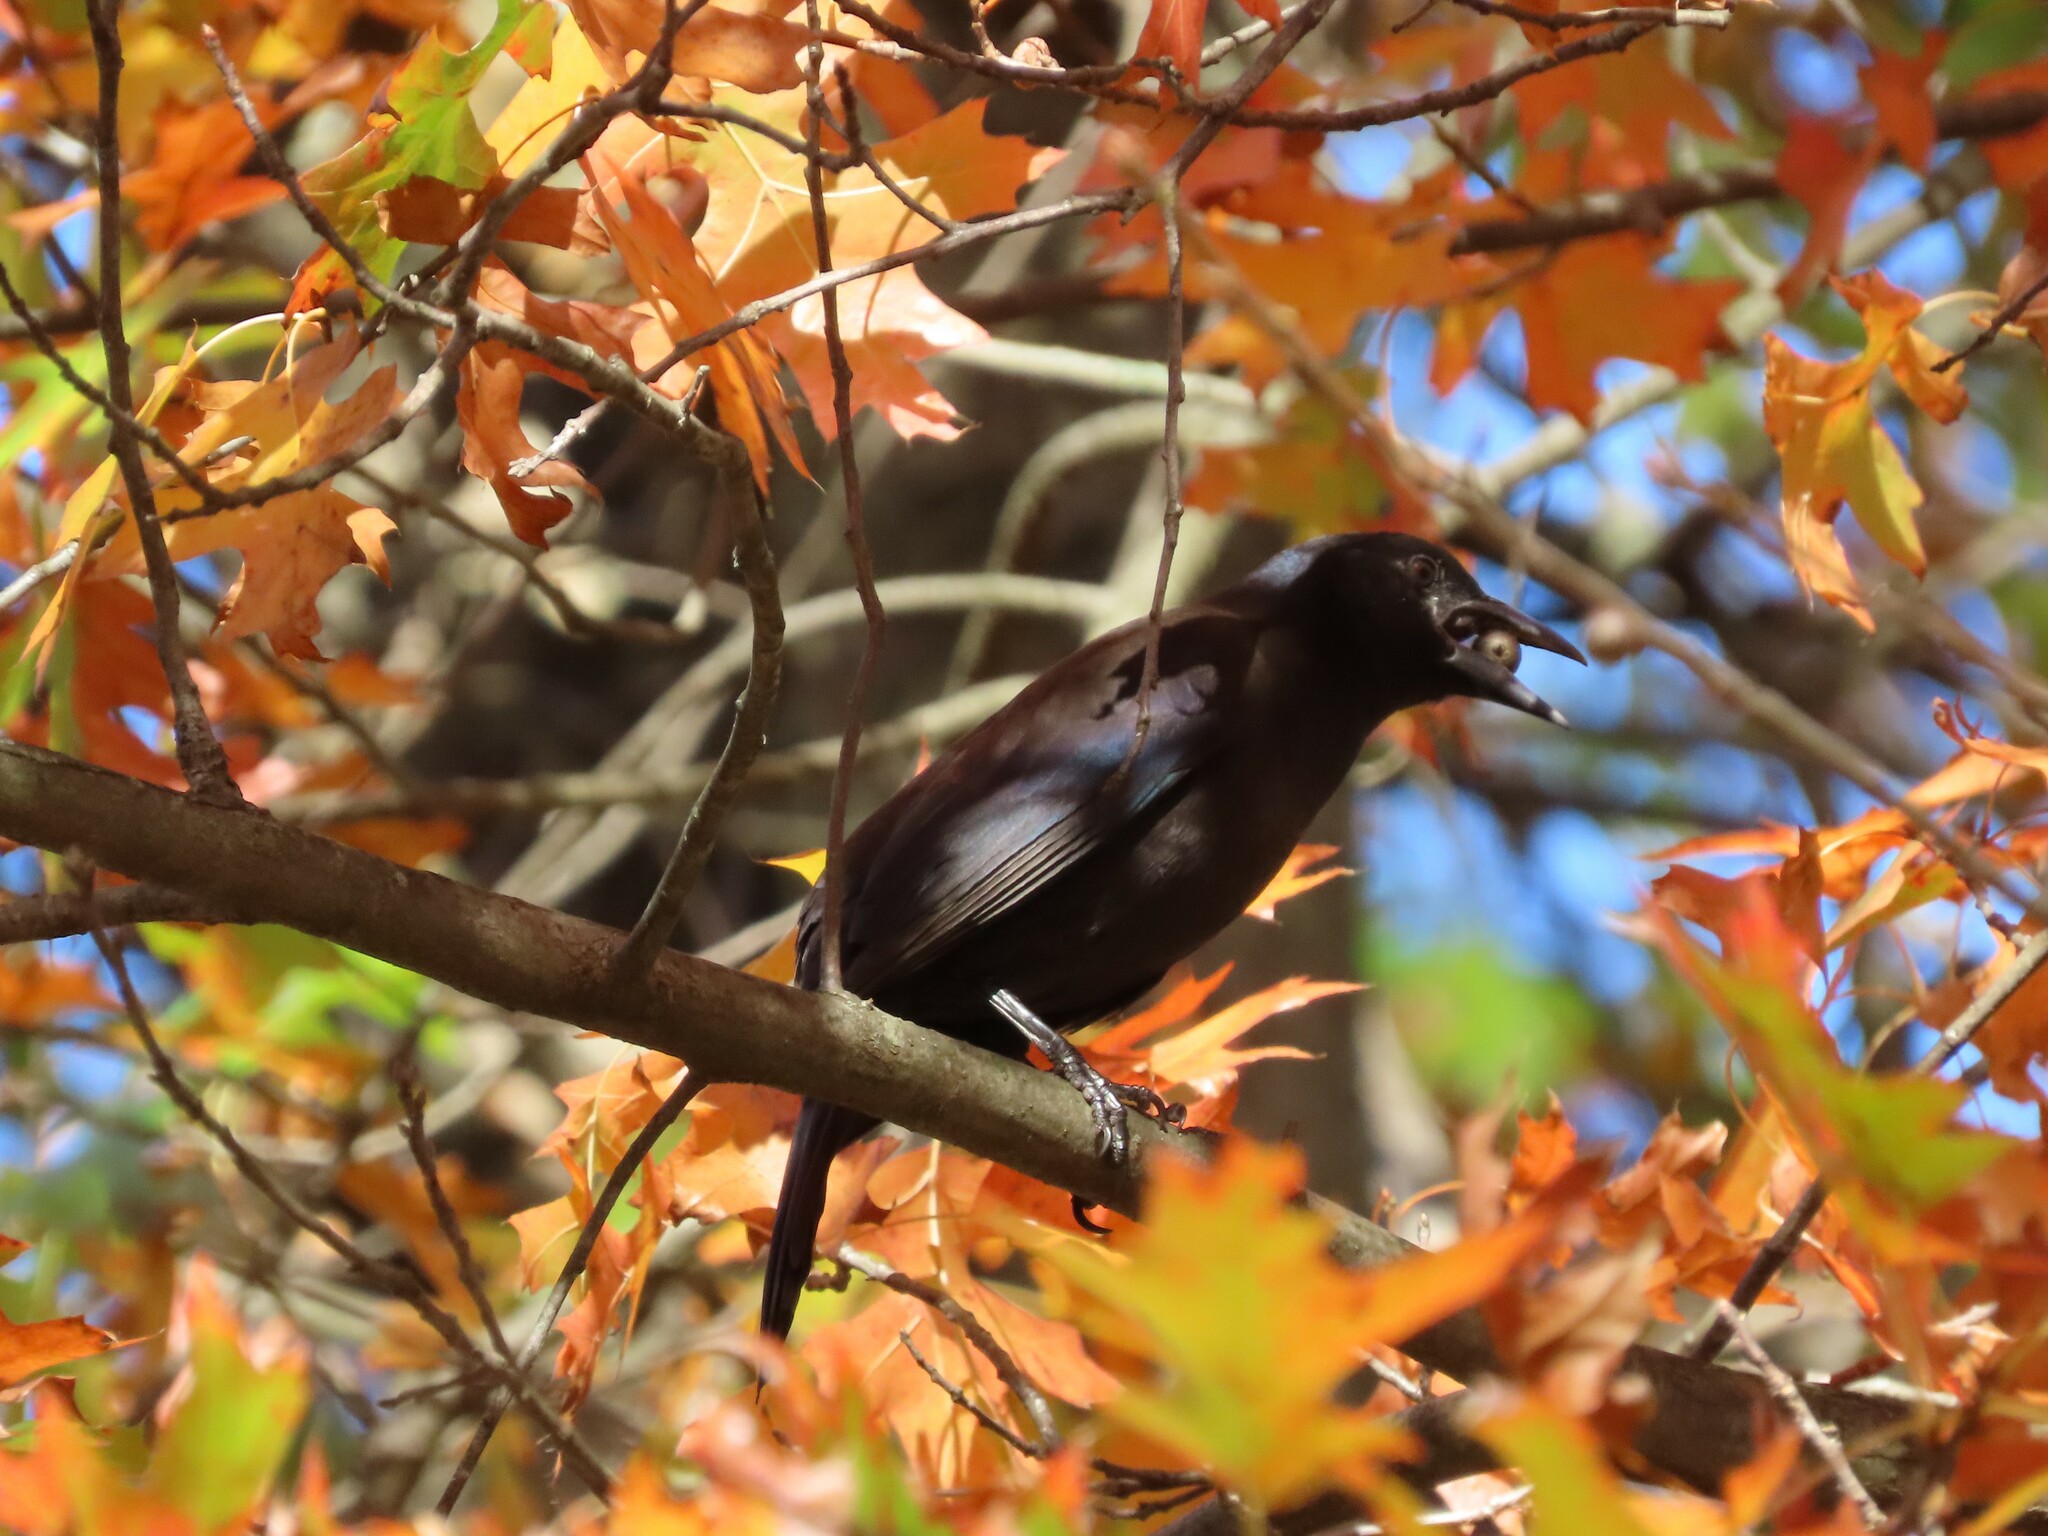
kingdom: Animalia
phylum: Chordata
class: Aves
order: Passeriformes
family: Icteridae
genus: Quiscalus
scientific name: Quiscalus quiscula
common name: Common grackle
